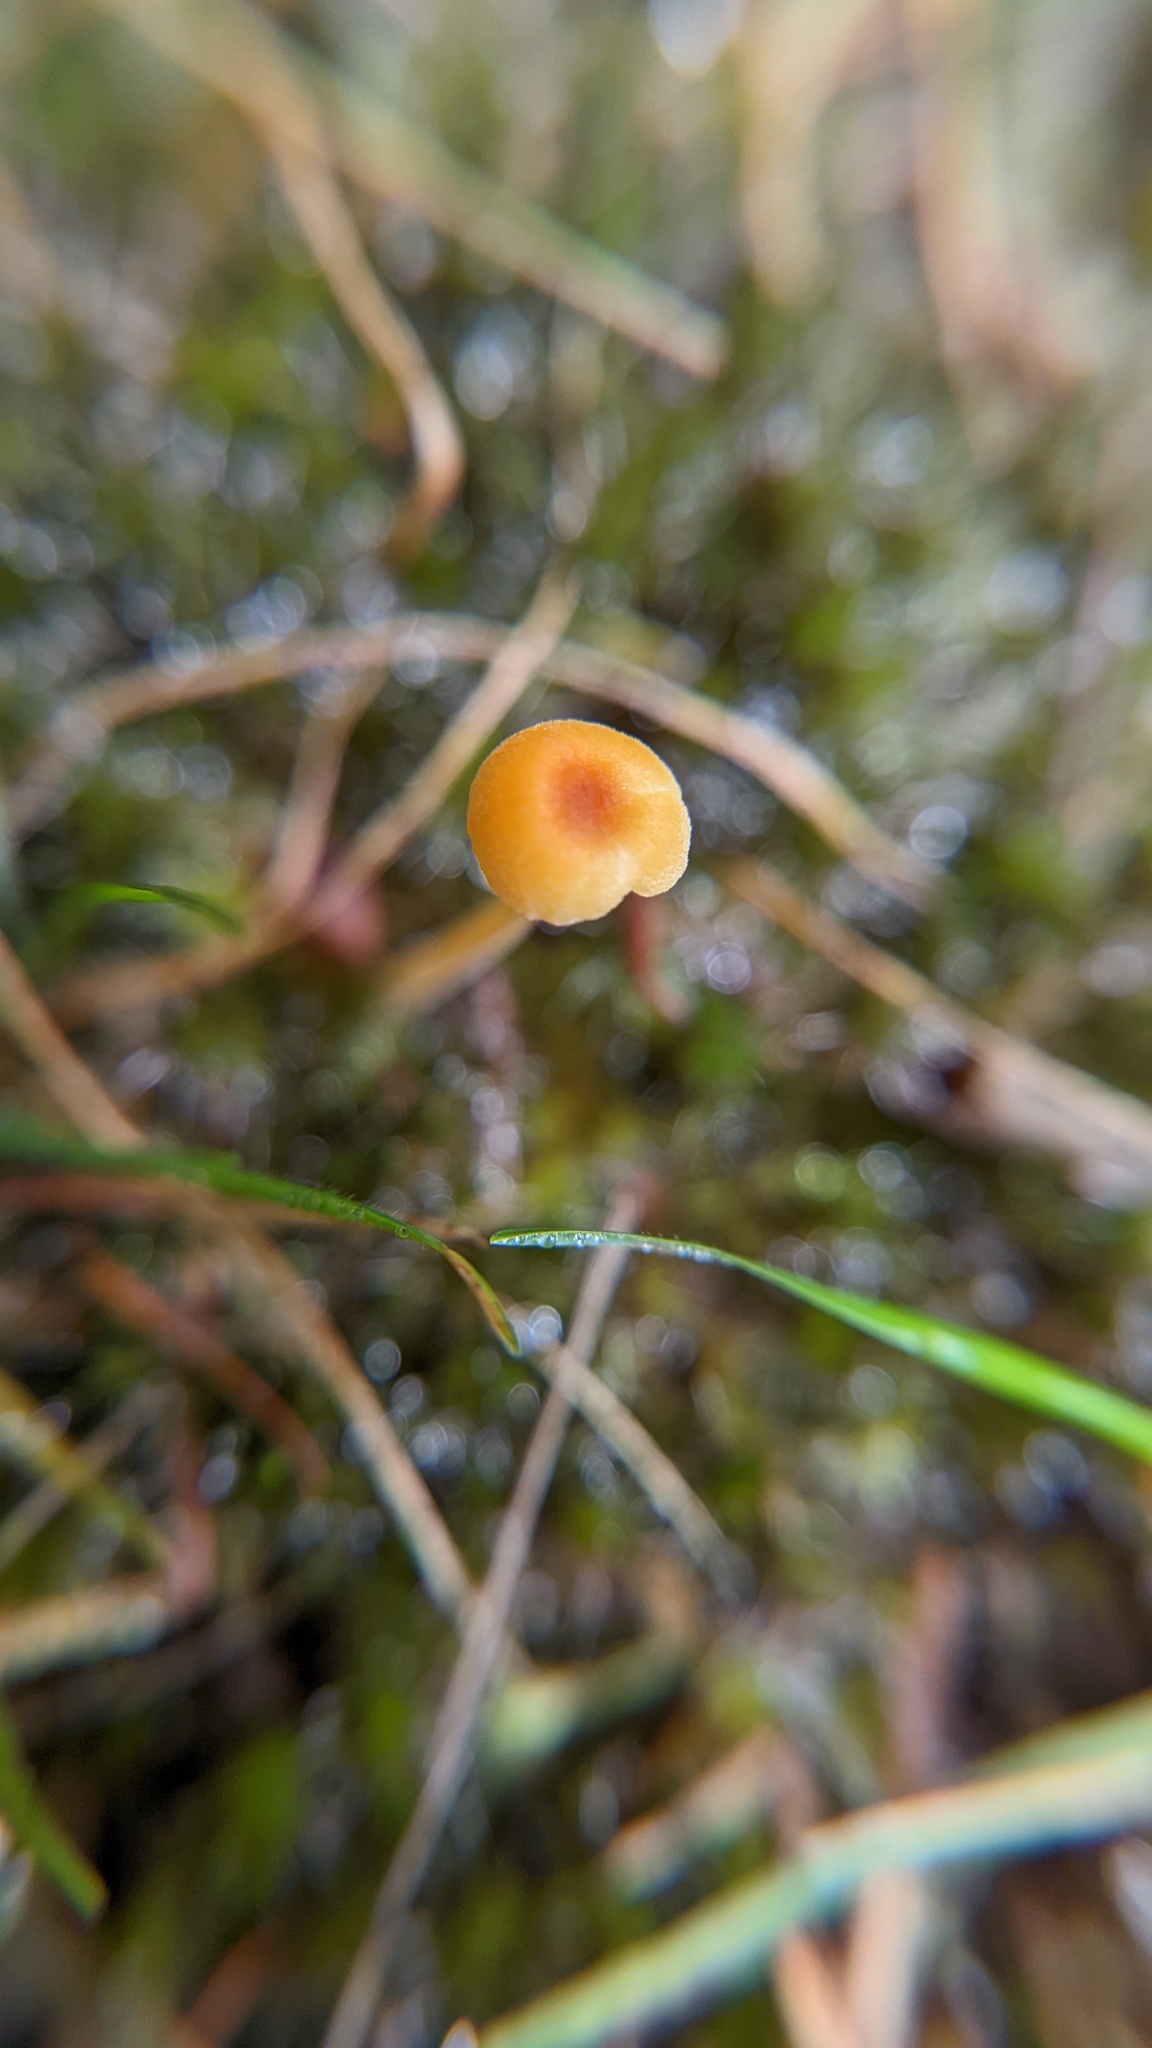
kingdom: Fungi
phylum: Basidiomycota
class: Agaricomycetes
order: Hymenochaetales
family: Rickenellaceae
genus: Rickenella
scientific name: Rickenella fibula
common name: Orange mosscap
